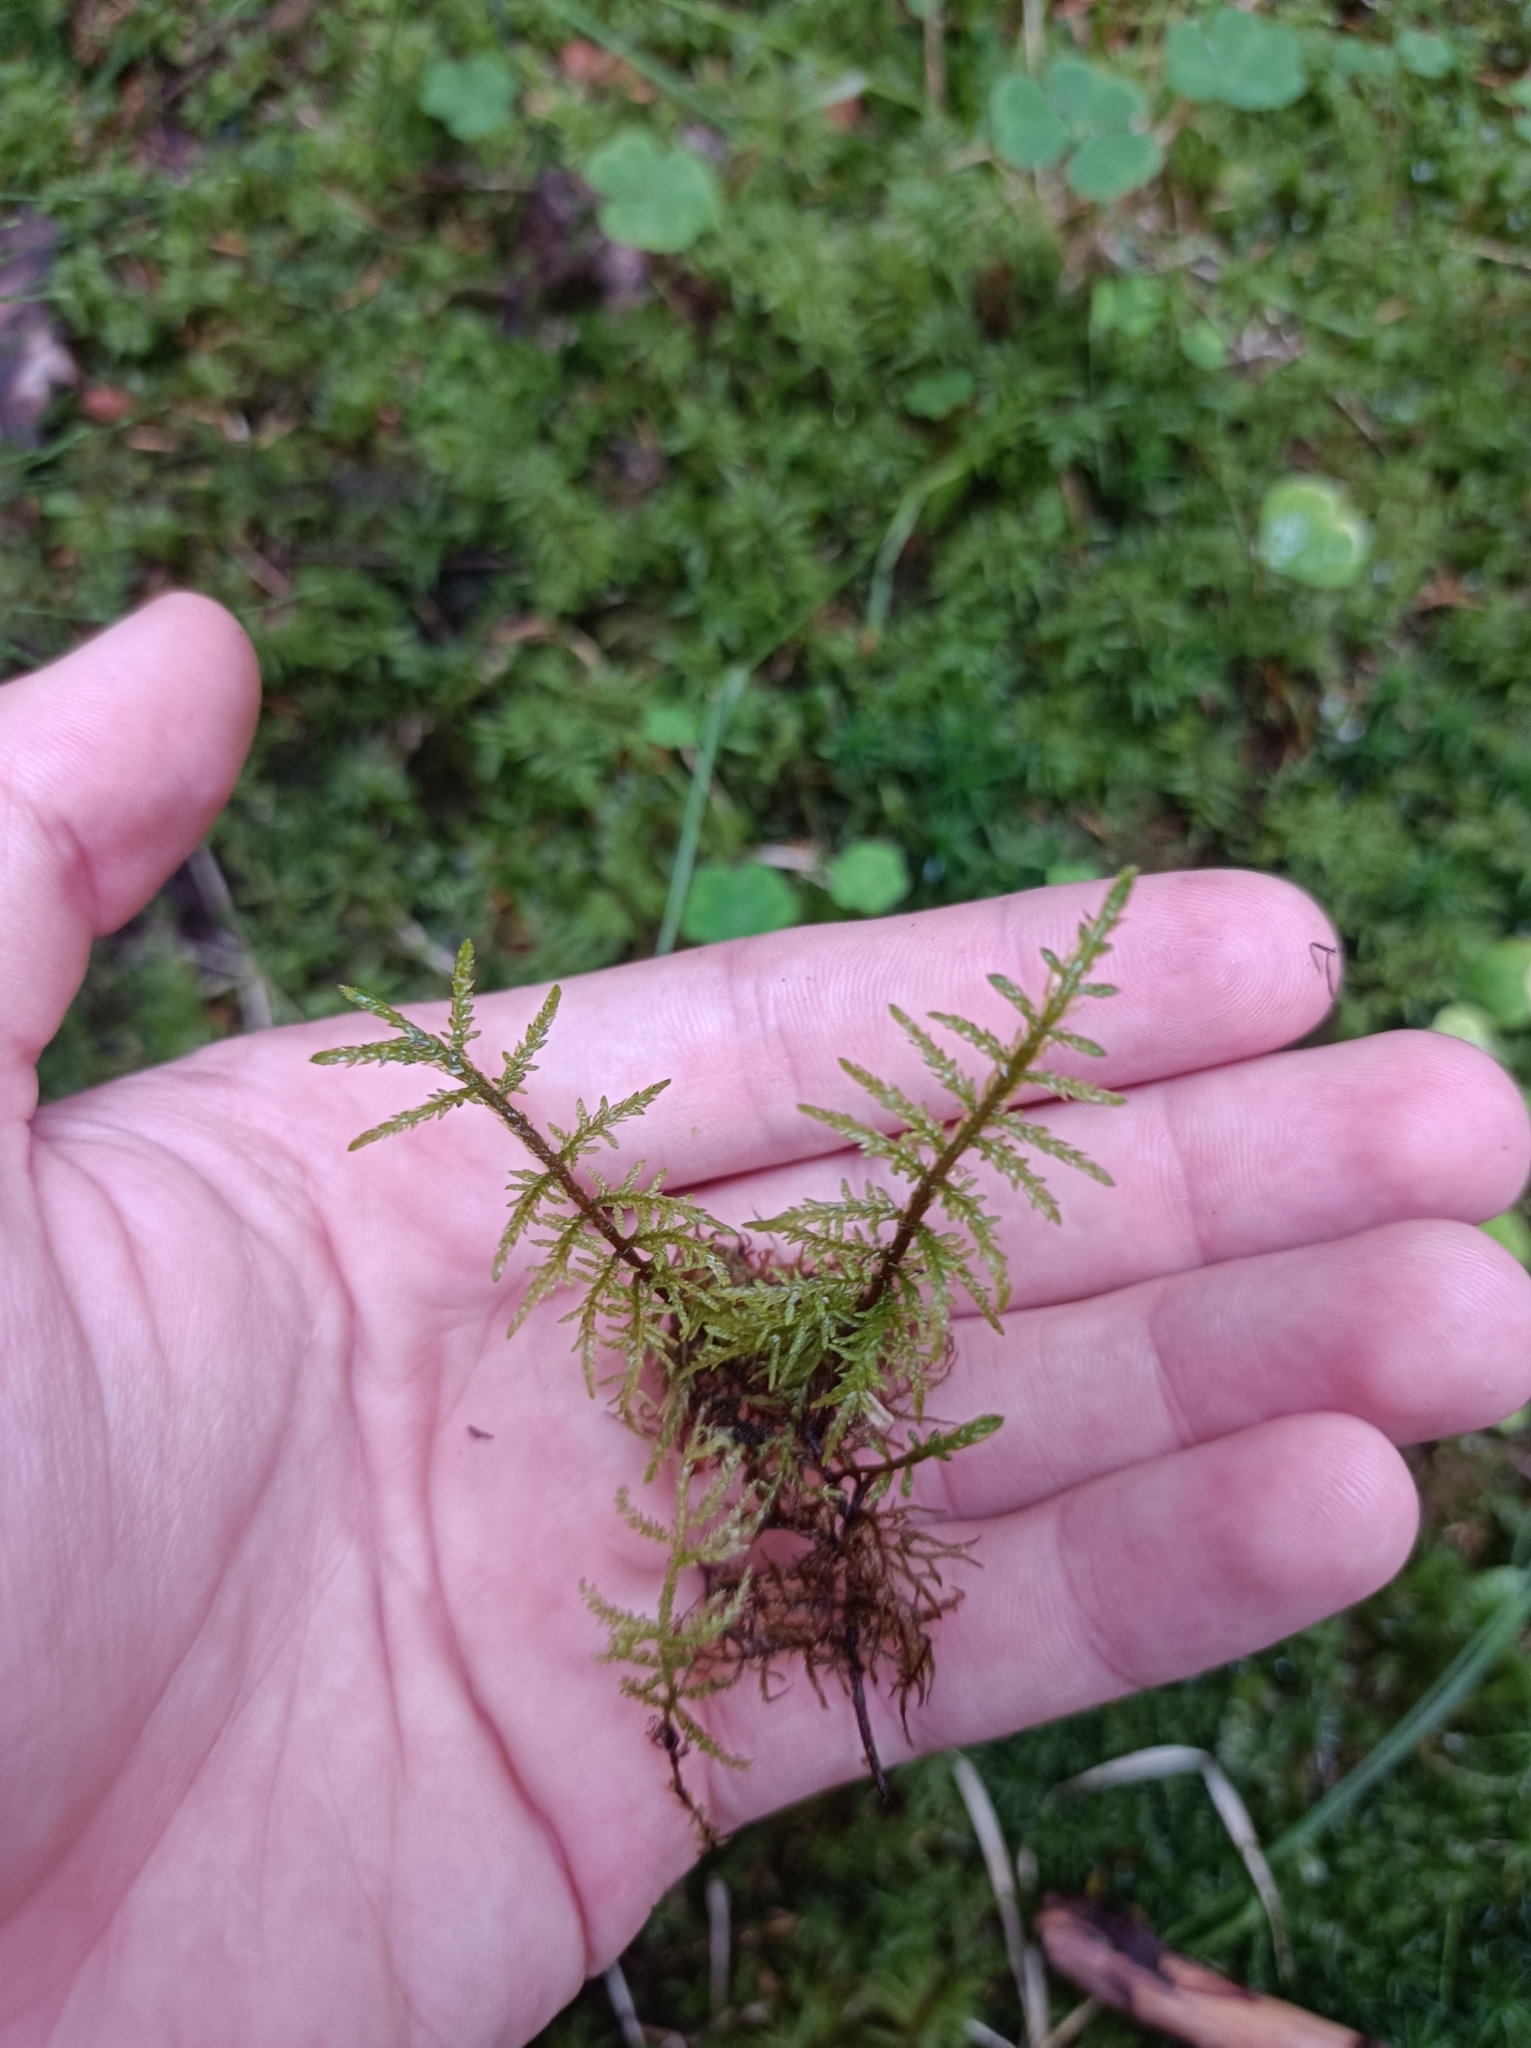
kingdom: Plantae
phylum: Bryophyta
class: Bryopsida
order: Hypnales
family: Hylocomiaceae
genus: Hylocomium
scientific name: Hylocomium splendens
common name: Stairstep moss
